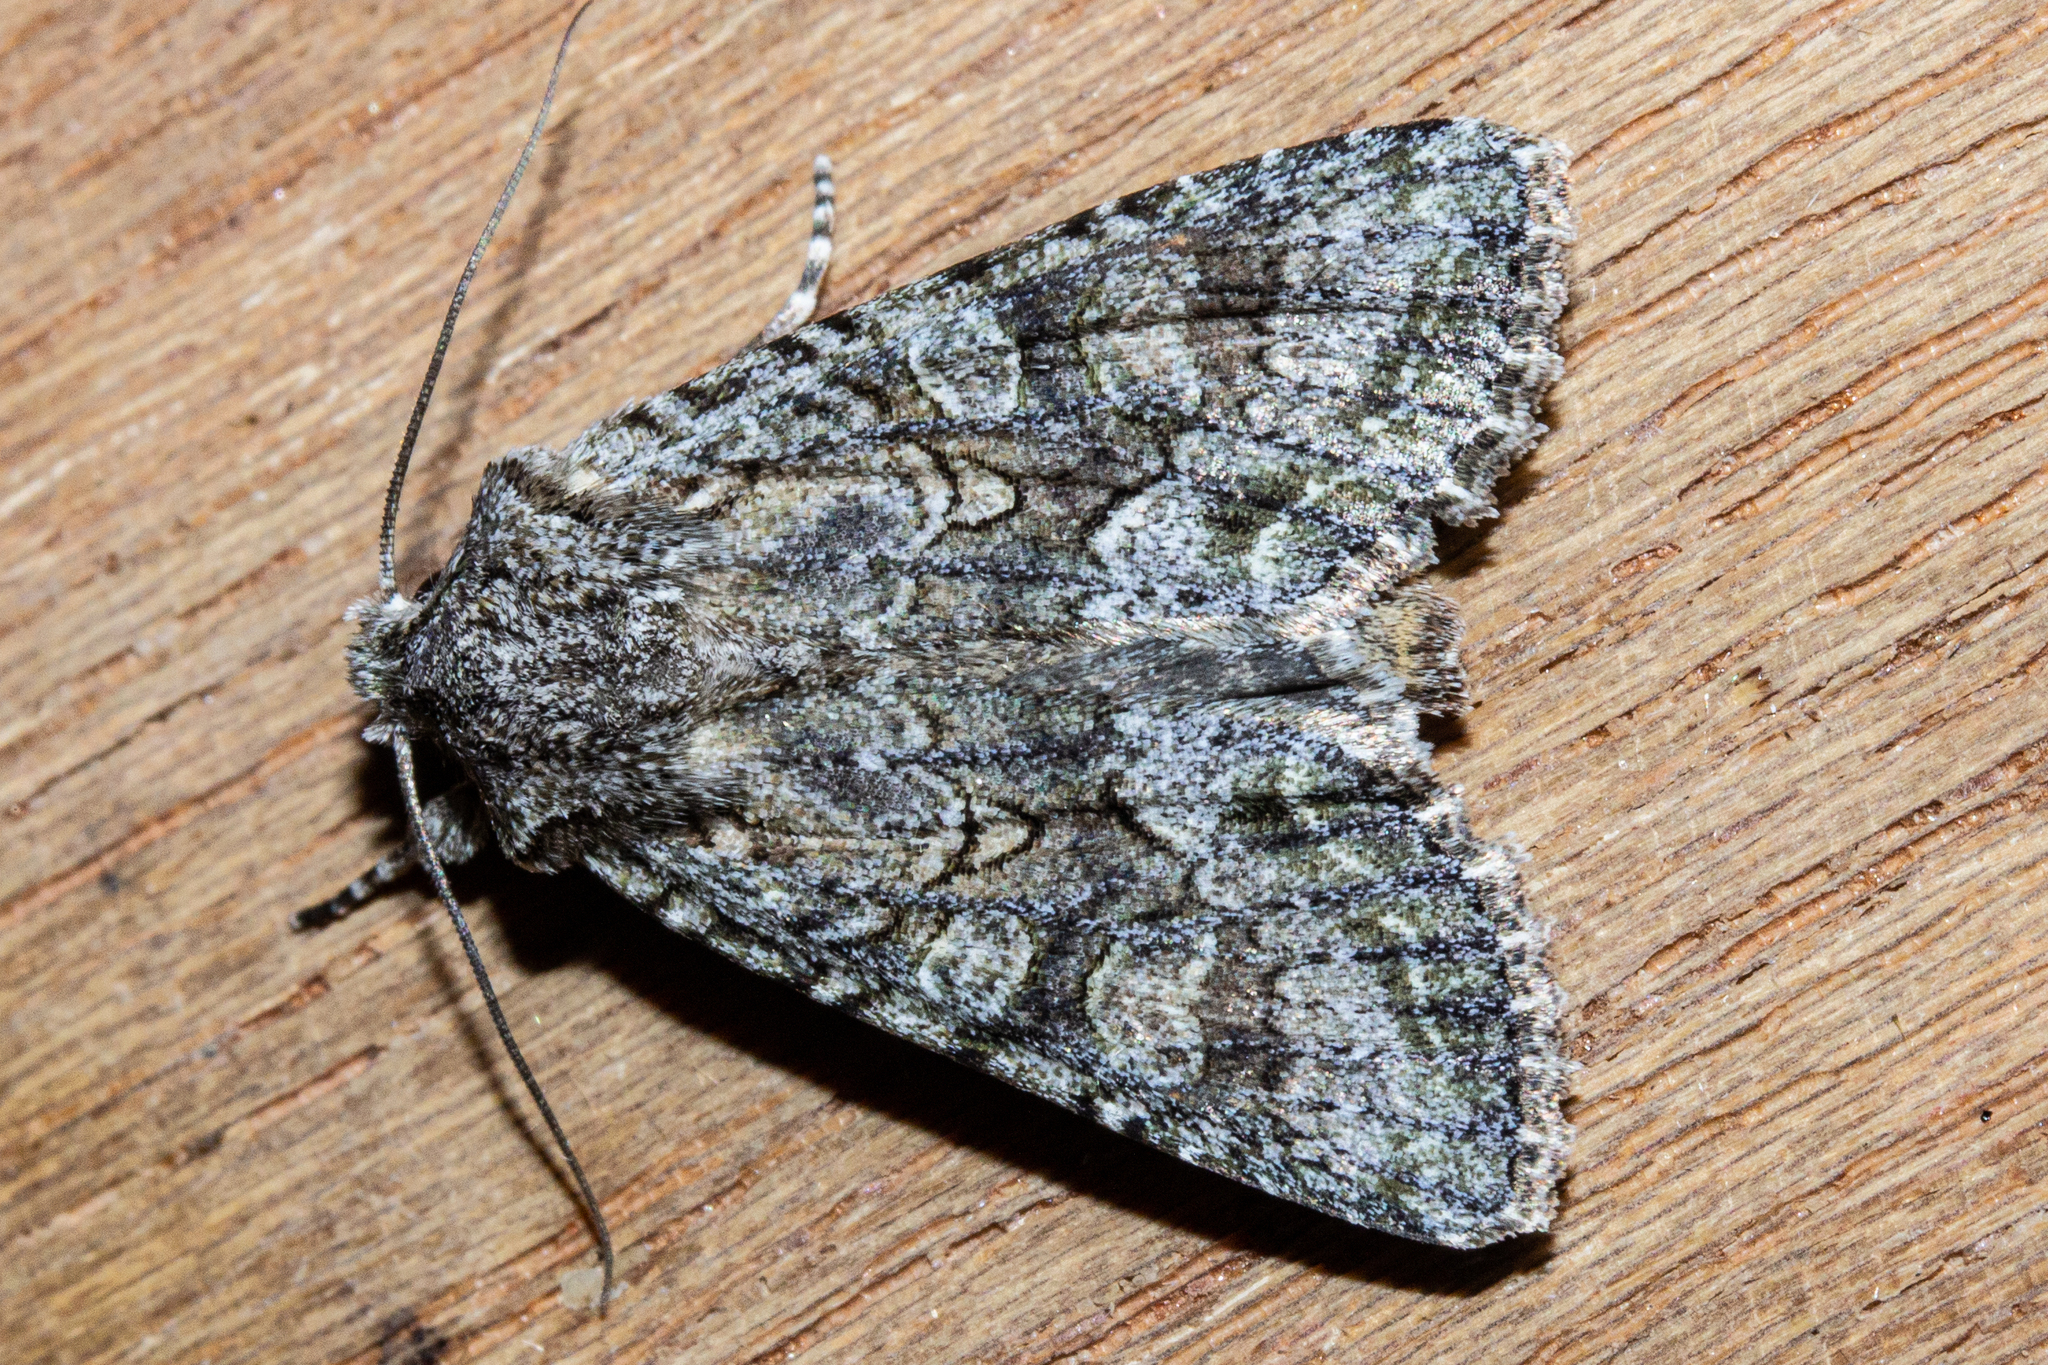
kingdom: Animalia
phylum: Arthropoda
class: Insecta
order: Lepidoptera
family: Noctuidae
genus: Ichneutica
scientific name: Ichneutica mutans
